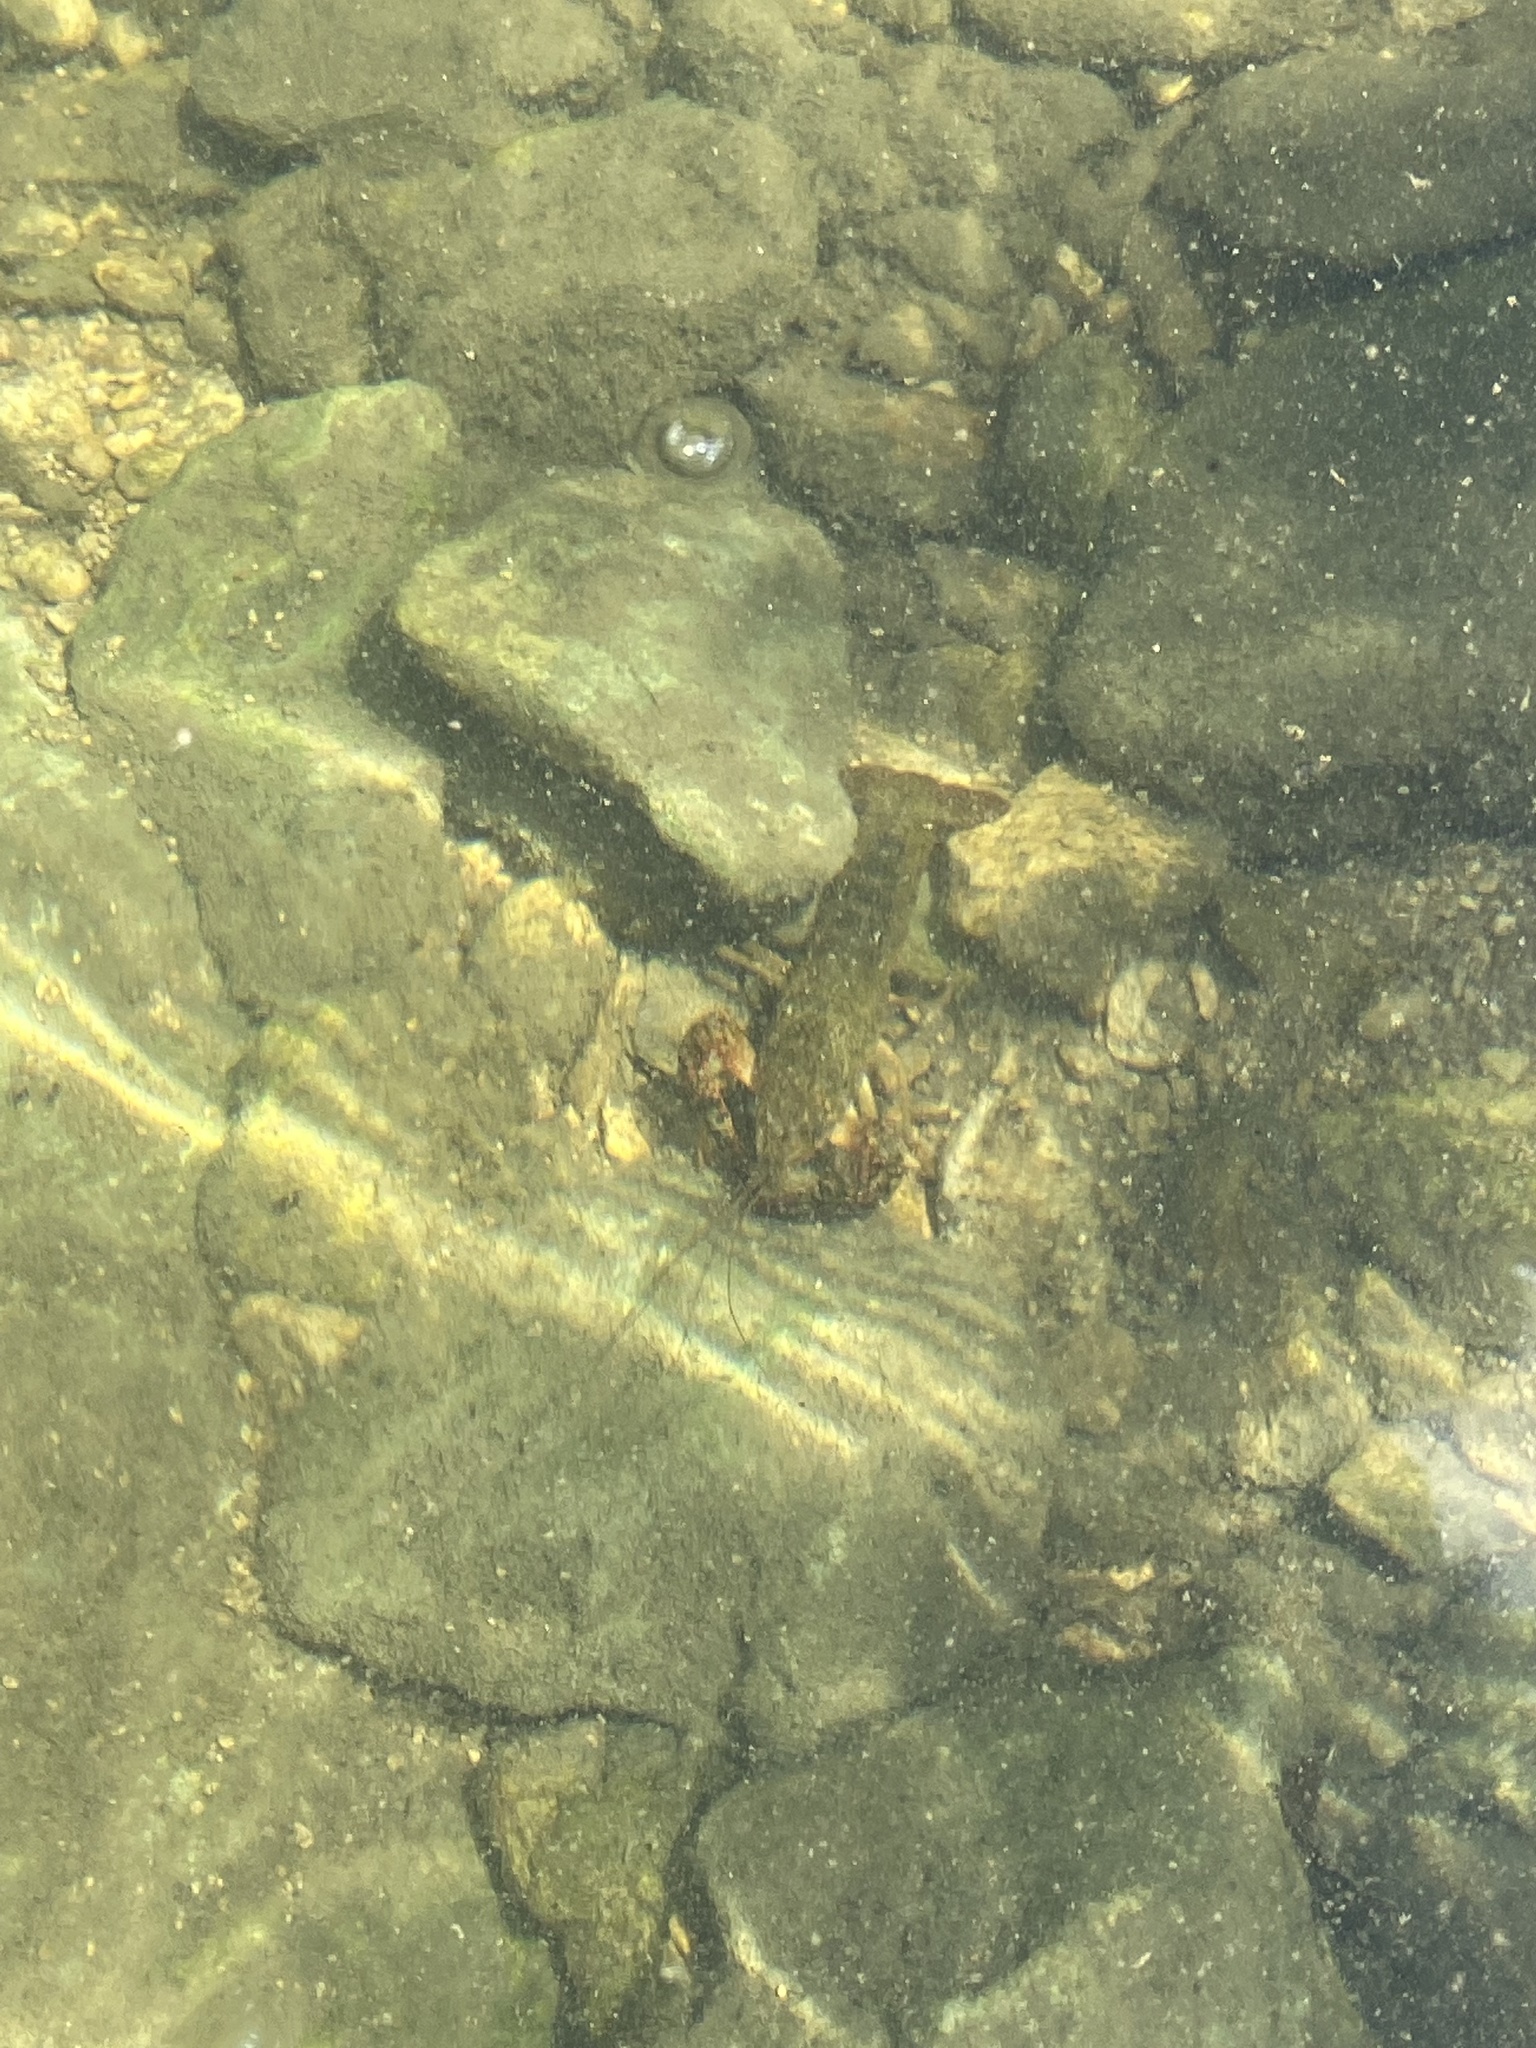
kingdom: Animalia
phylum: Arthropoda
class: Malacostraca
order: Decapoda
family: Cambaridae
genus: Procambarus
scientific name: Procambarus clarkii
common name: Red swamp crayfish
